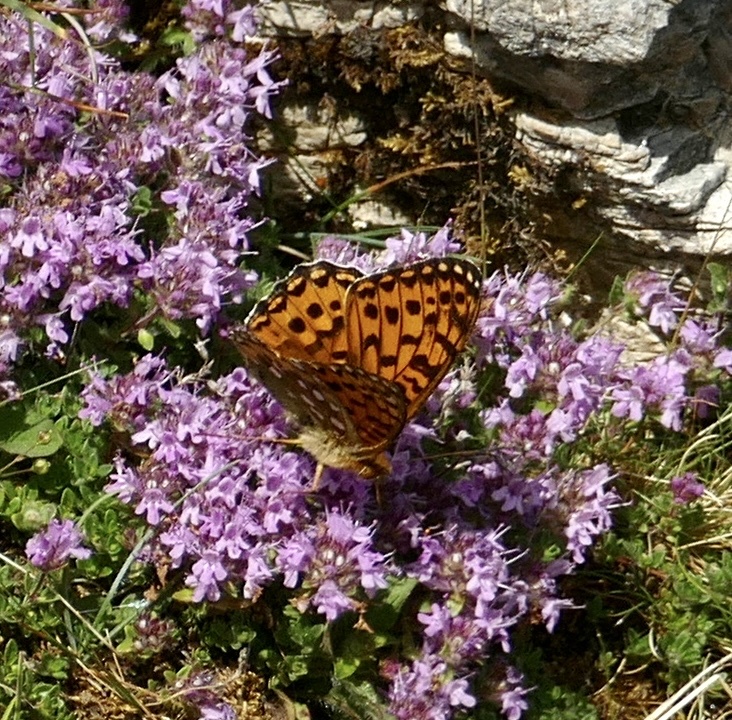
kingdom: Animalia
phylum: Arthropoda
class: Insecta
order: Lepidoptera
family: Nymphalidae
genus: Speyeria
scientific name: Speyeria aglaja
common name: Dark green fritillary
